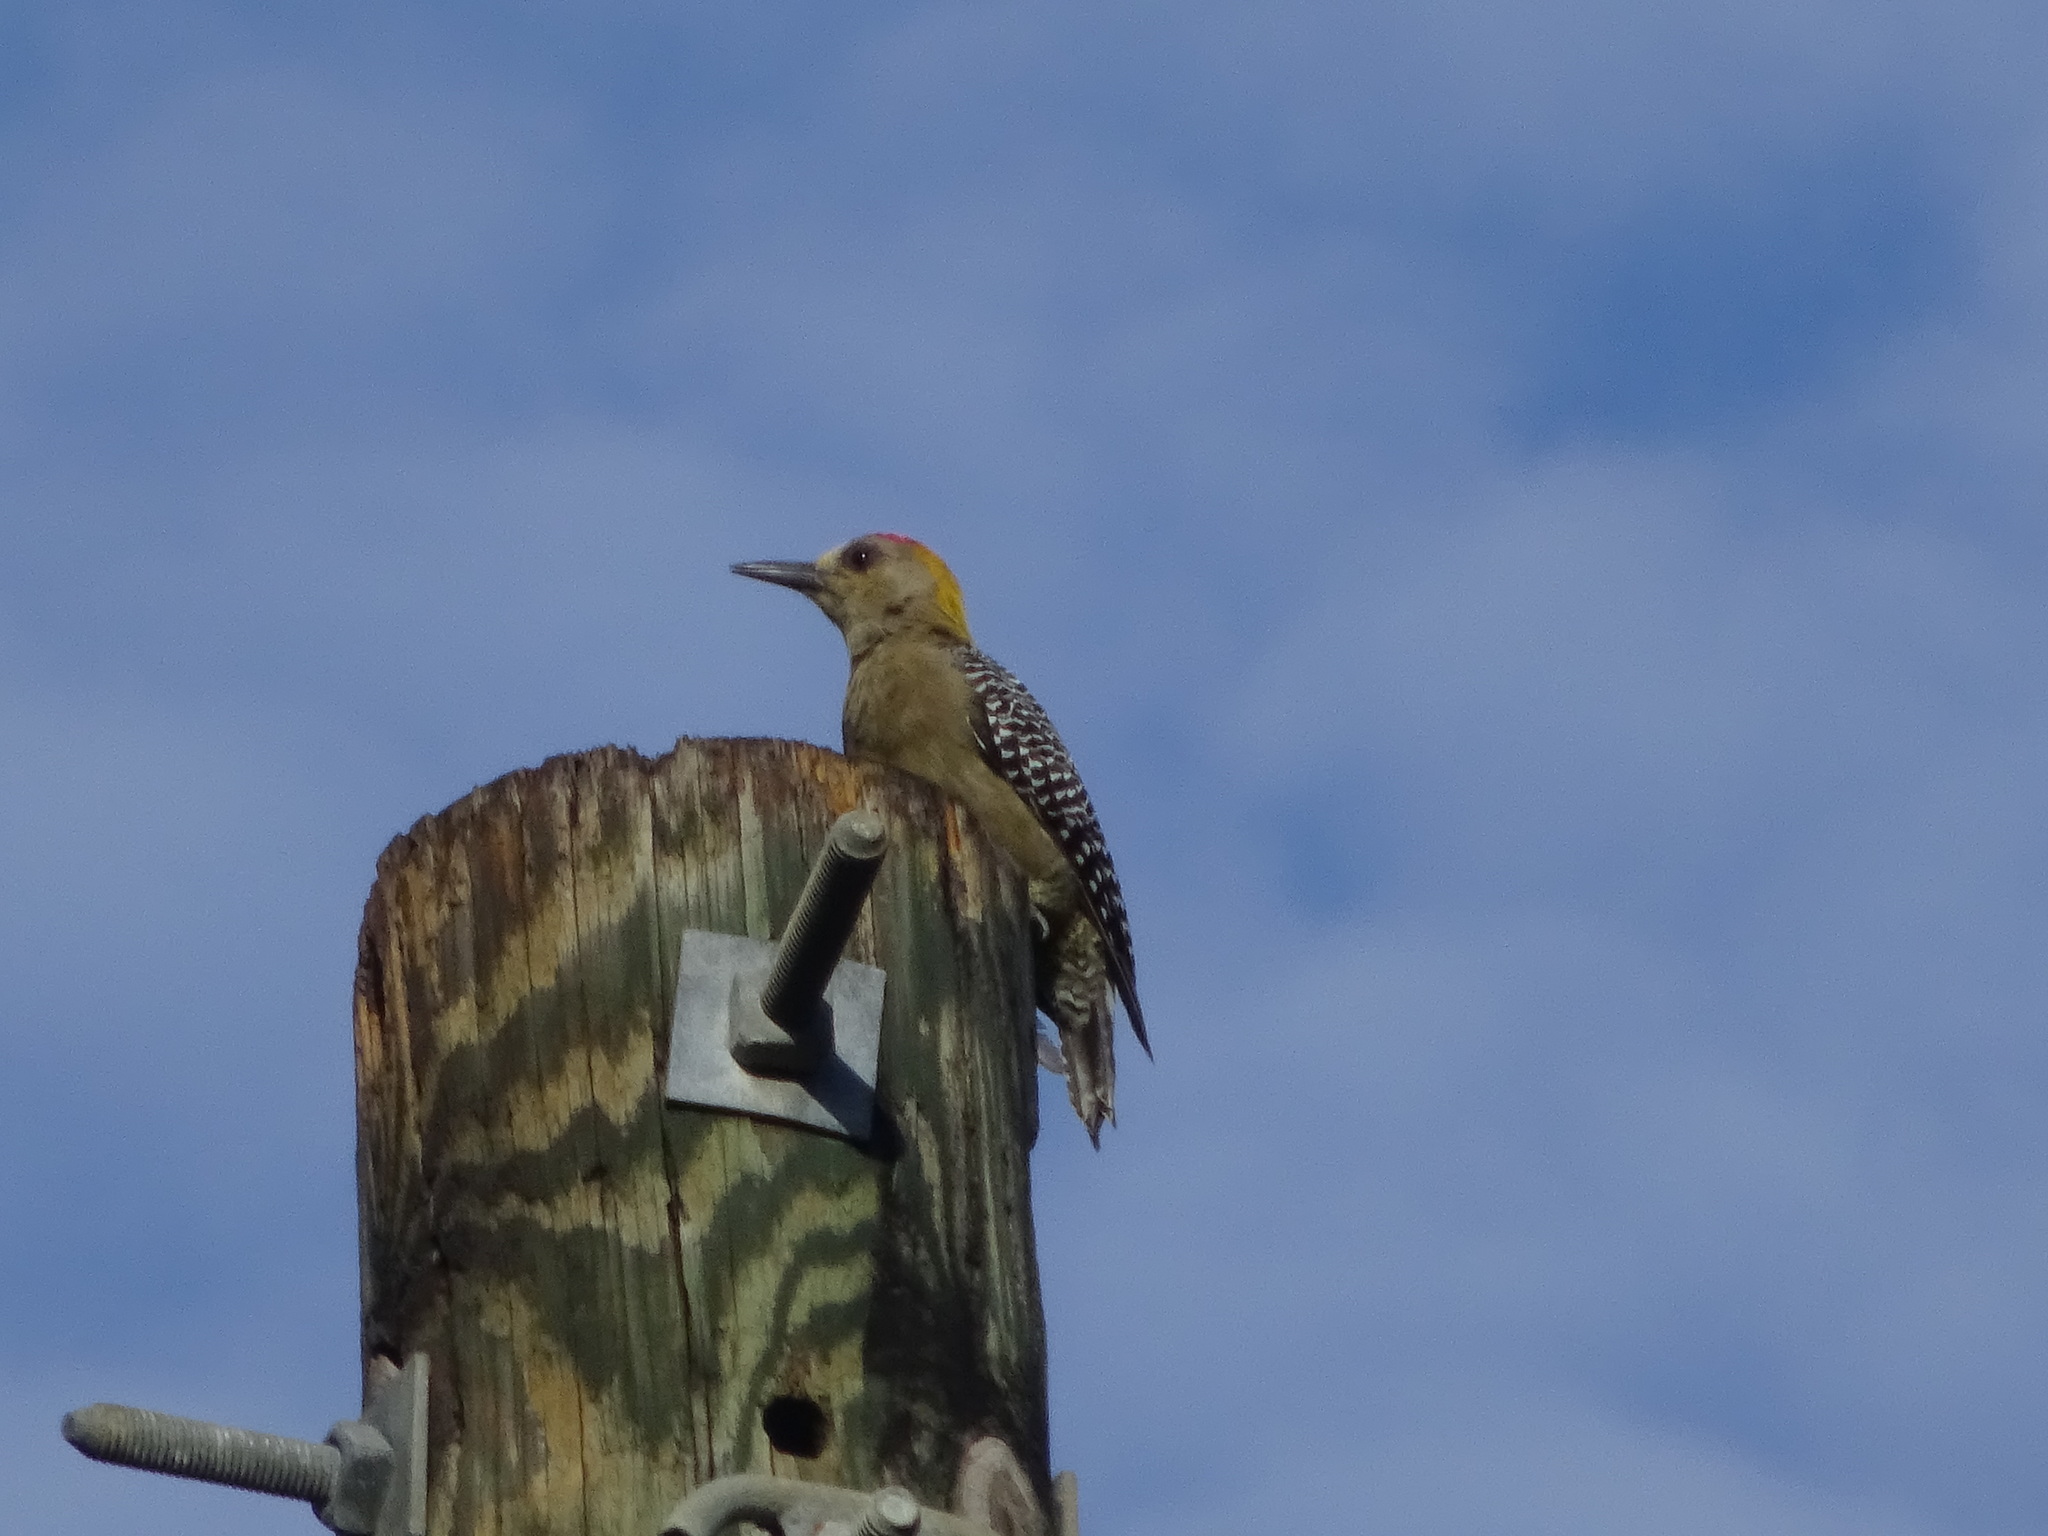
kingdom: Animalia
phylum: Chordata
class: Aves
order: Piciformes
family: Picidae
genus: Melanerpes
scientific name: Melanerpes hoffmannii
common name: Hoffmann's woodpecker
